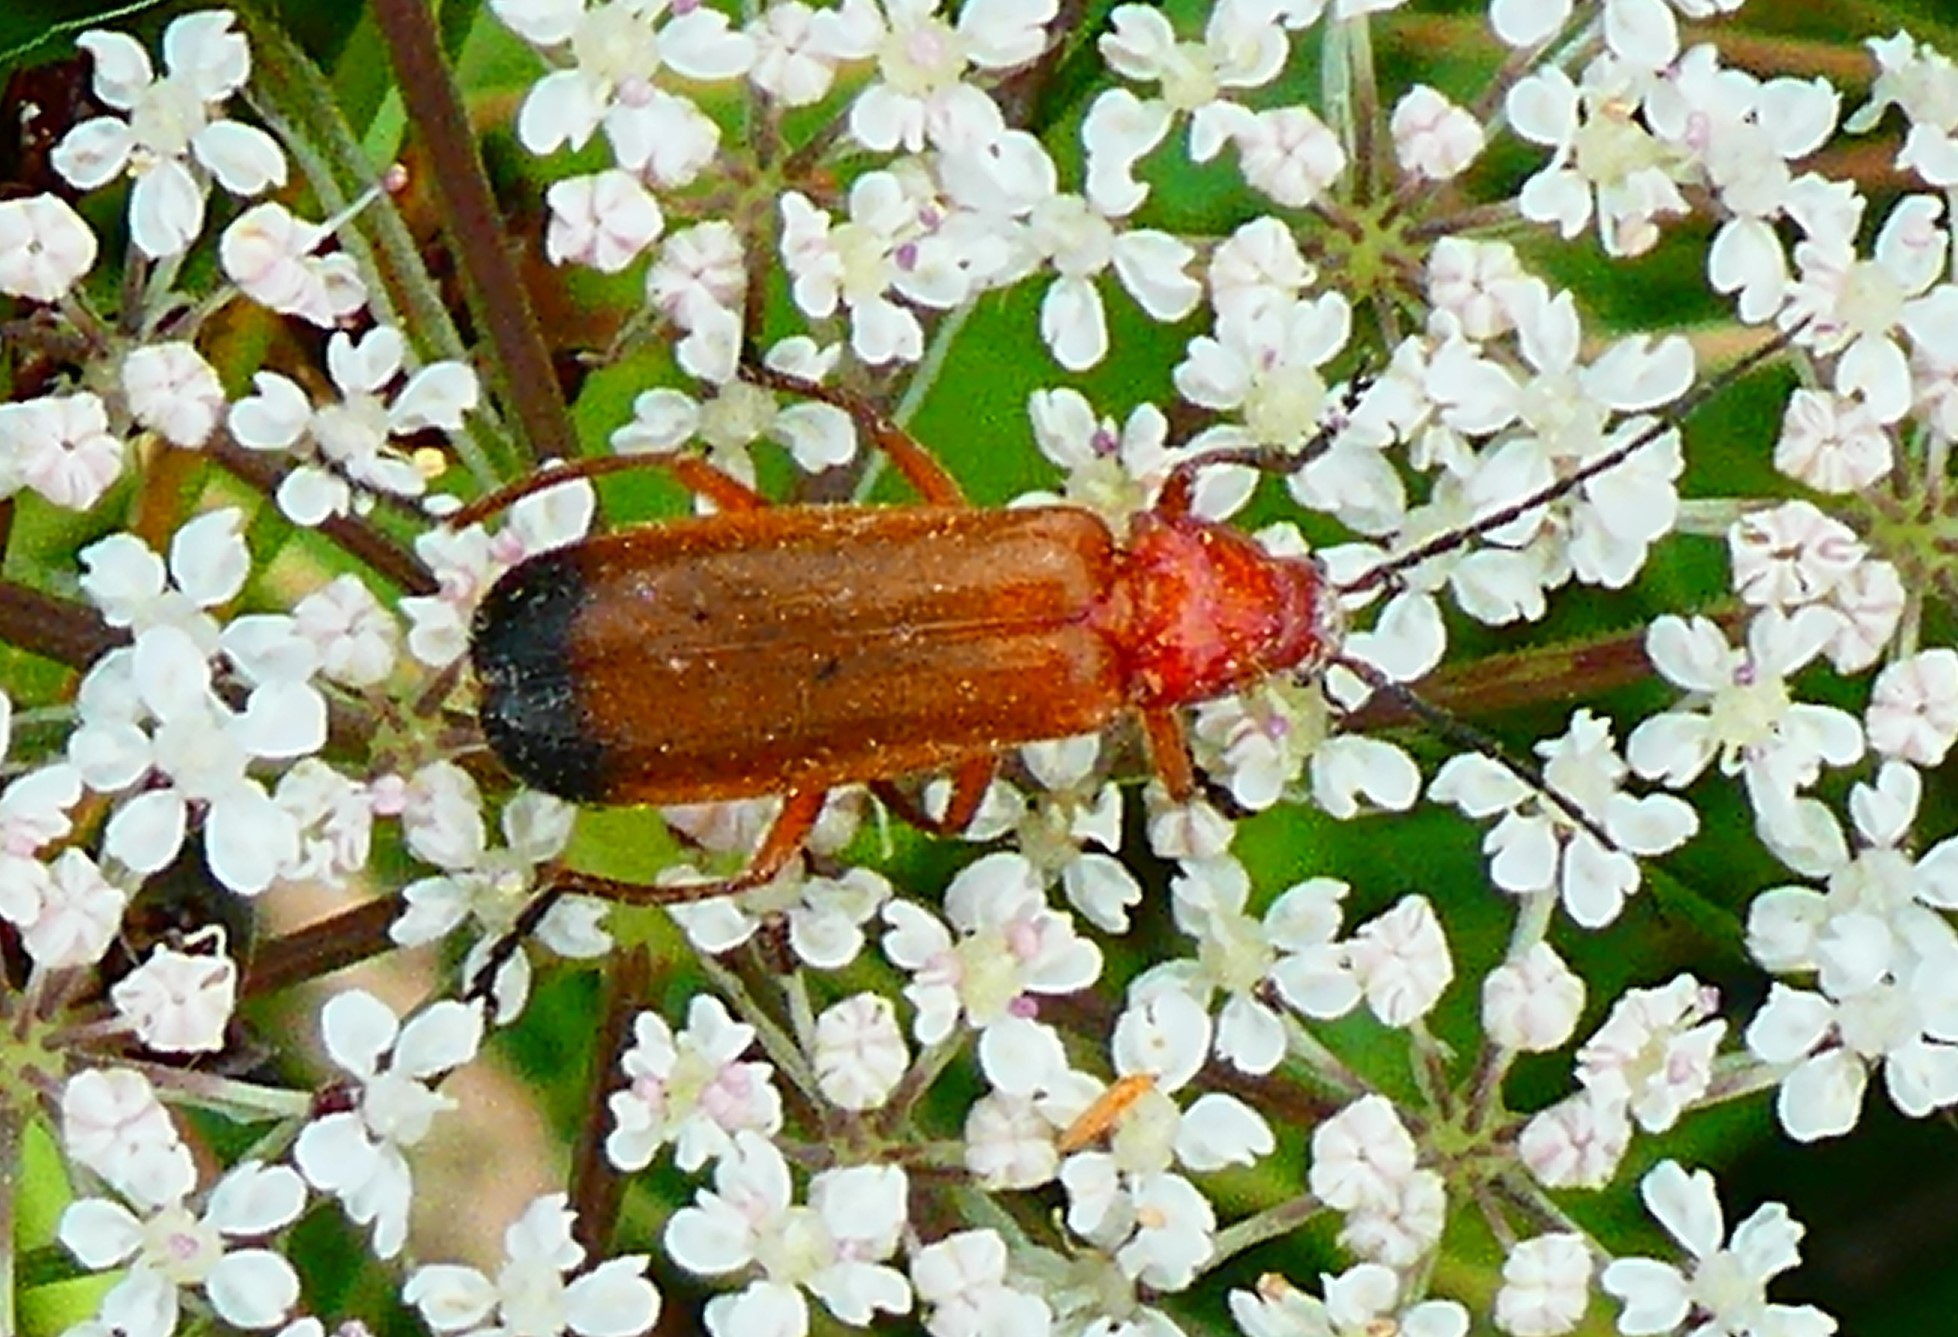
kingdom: Animalia
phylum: Arthropoda
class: Insecta
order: Coleoptera
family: Cantharidae
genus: Rhagonycha
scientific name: Rhagonycha fulva
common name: Common red soldier beetle
